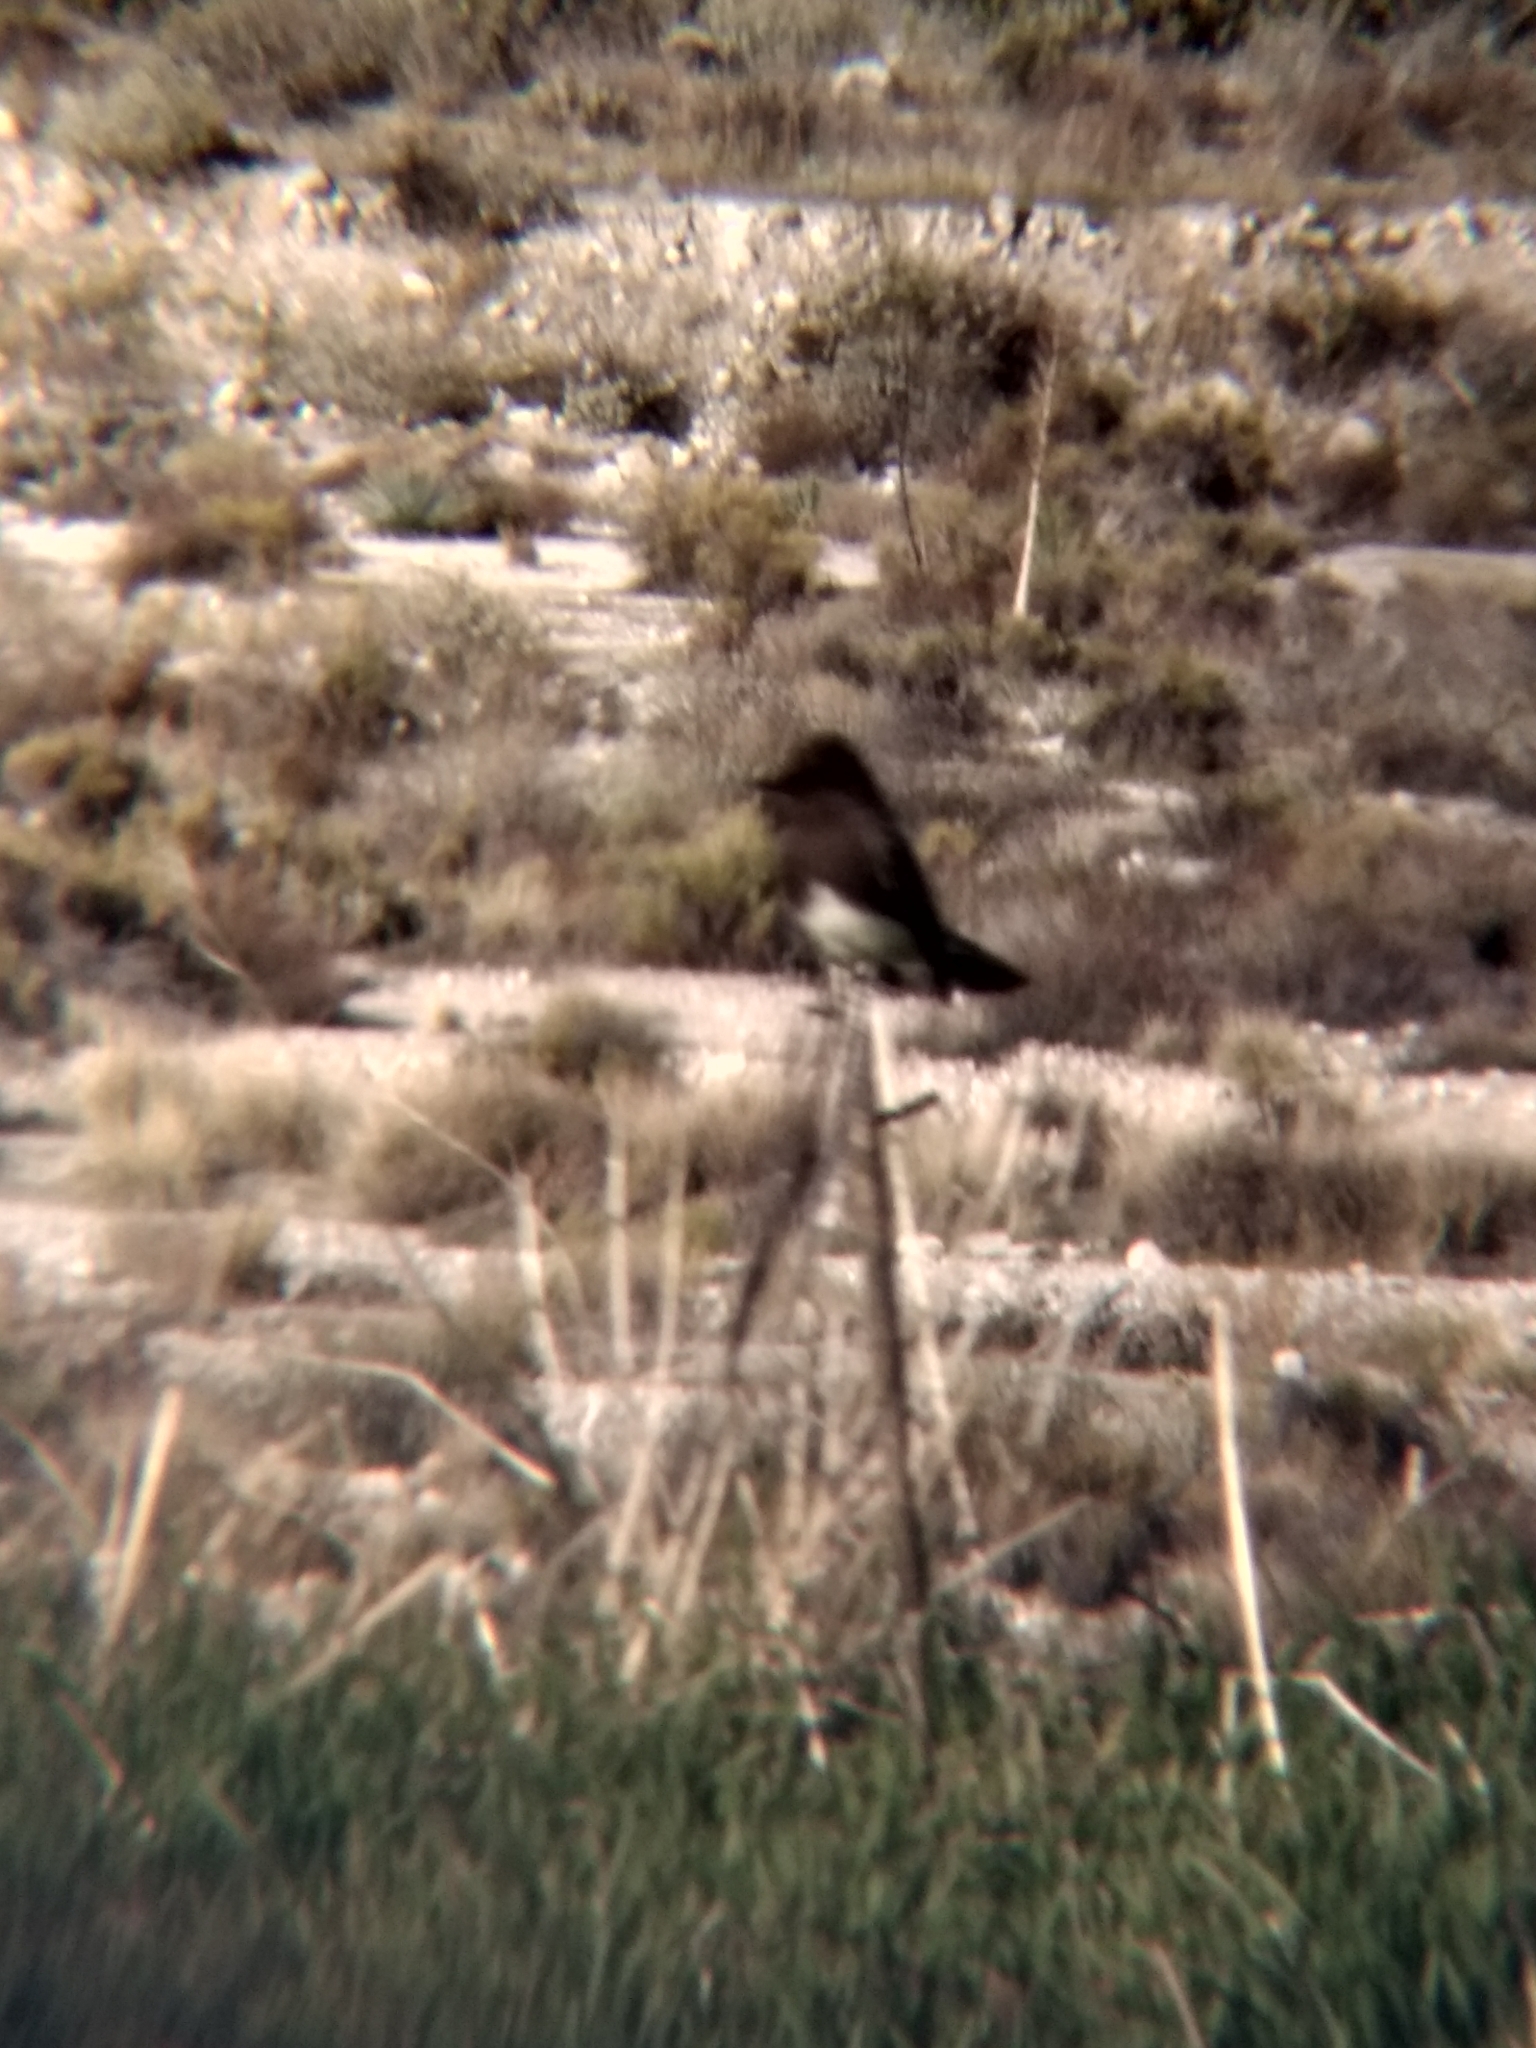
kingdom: Animalia
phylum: Chordata
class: Aves
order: Passeriformes
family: Tyrannidae
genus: Sayornis
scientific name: Sayornis nigricans
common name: Black phoebe
